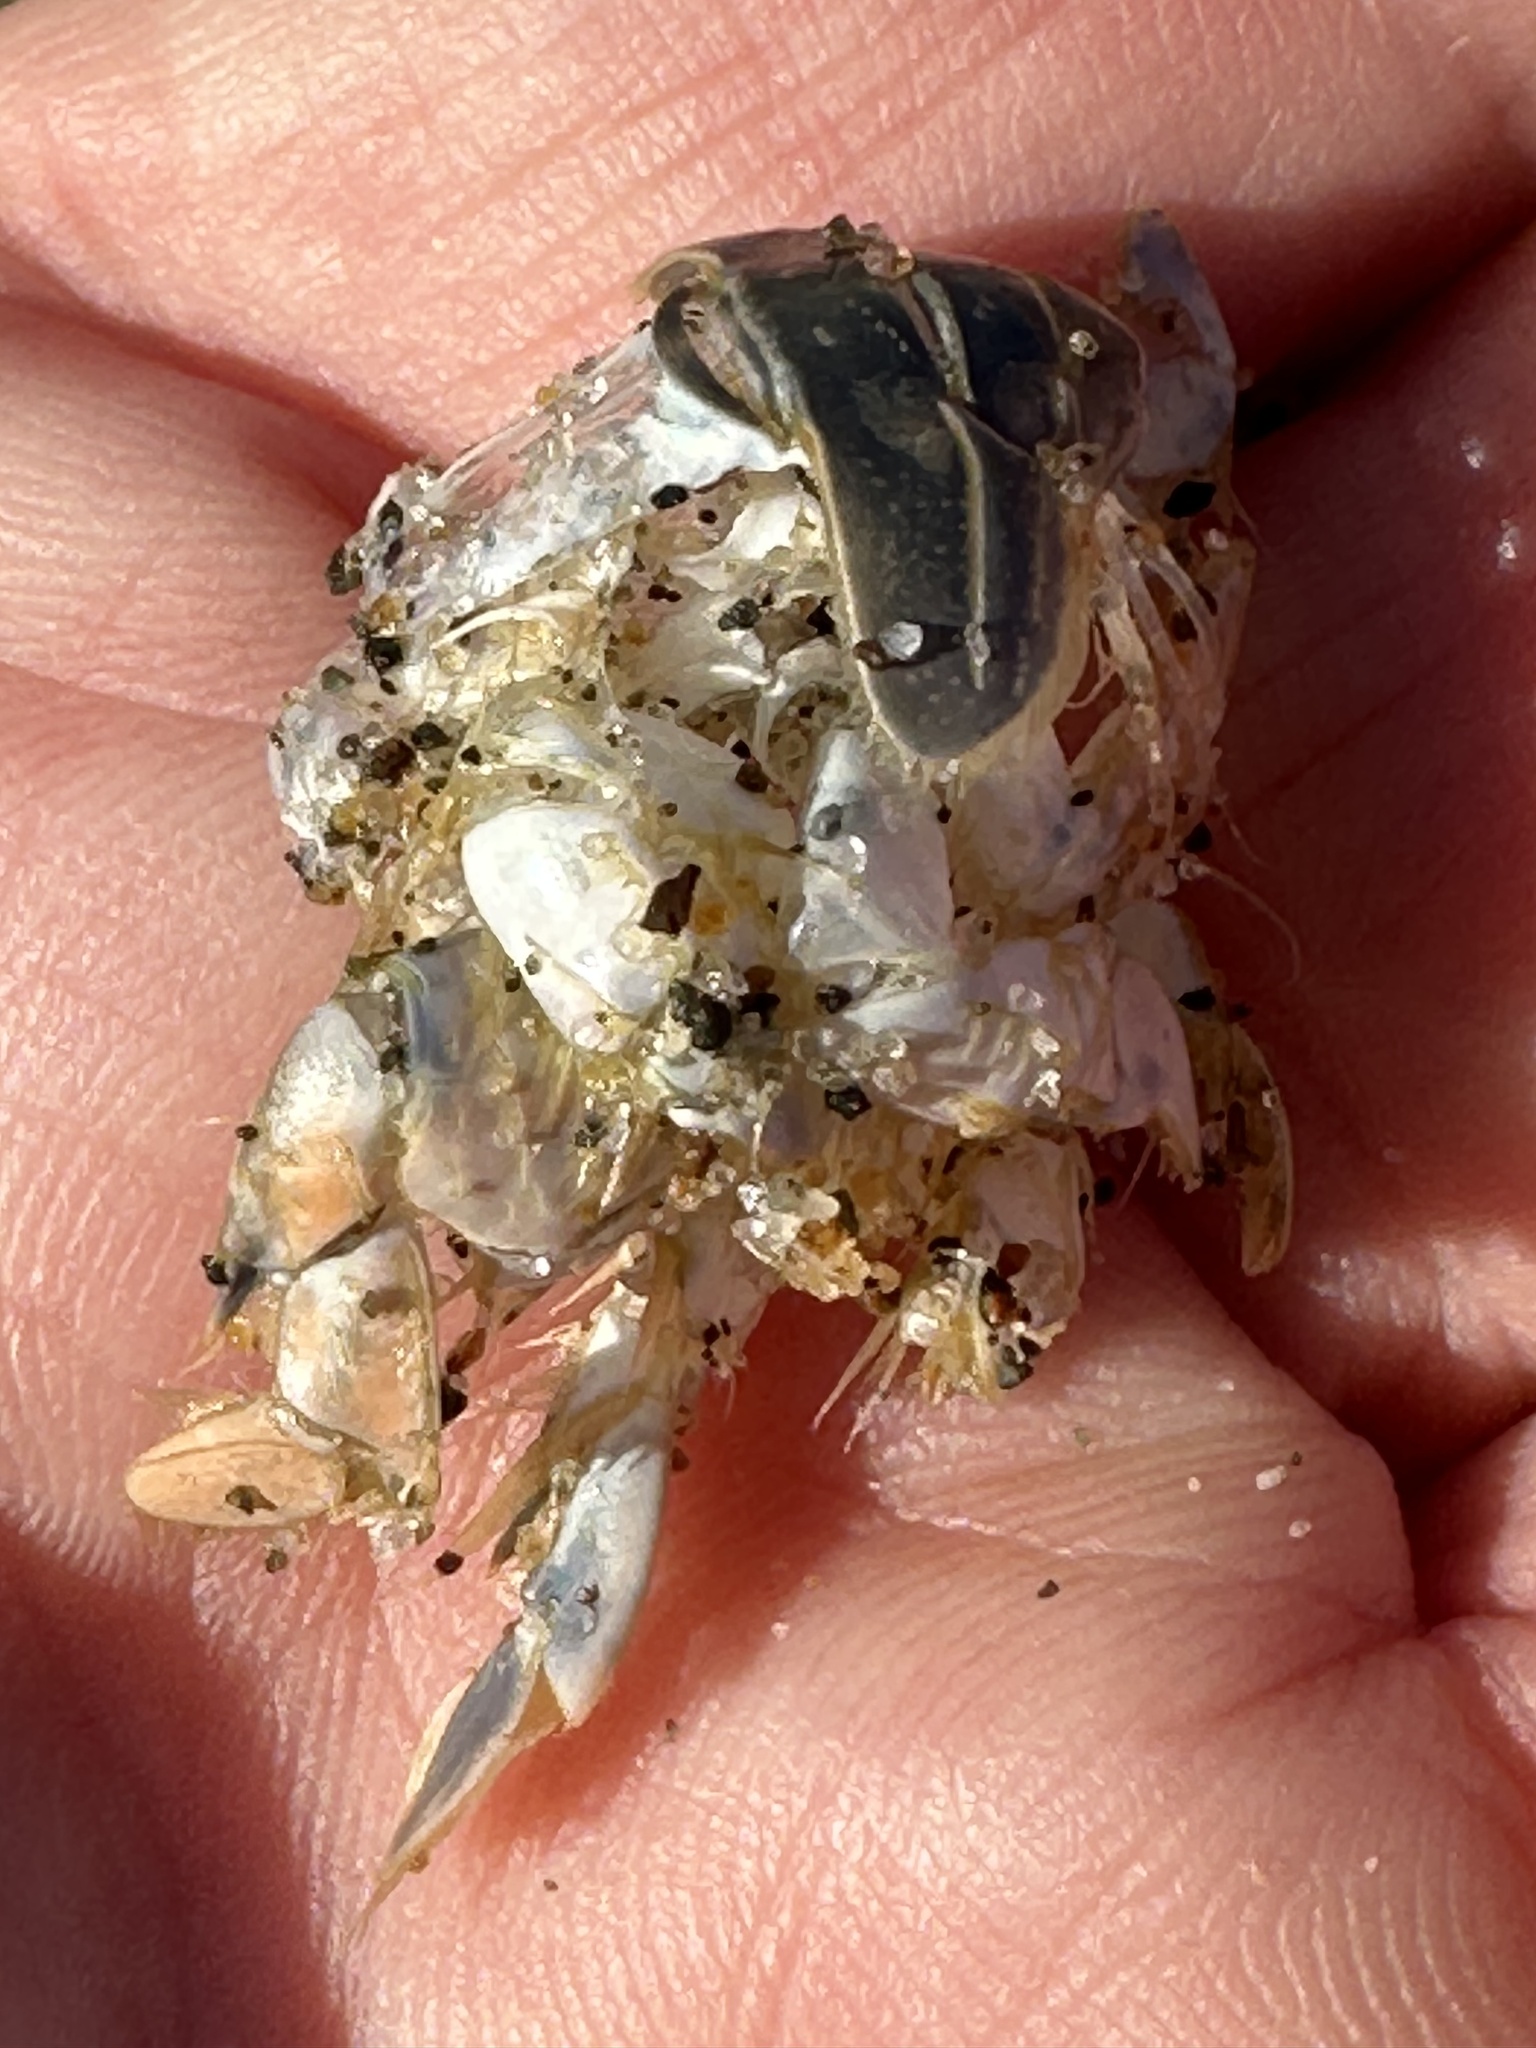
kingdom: Animalia
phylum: Arthropoda
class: Malacostraca
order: Decapoda
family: Hippidae
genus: Emerita
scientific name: Emerita analoga
